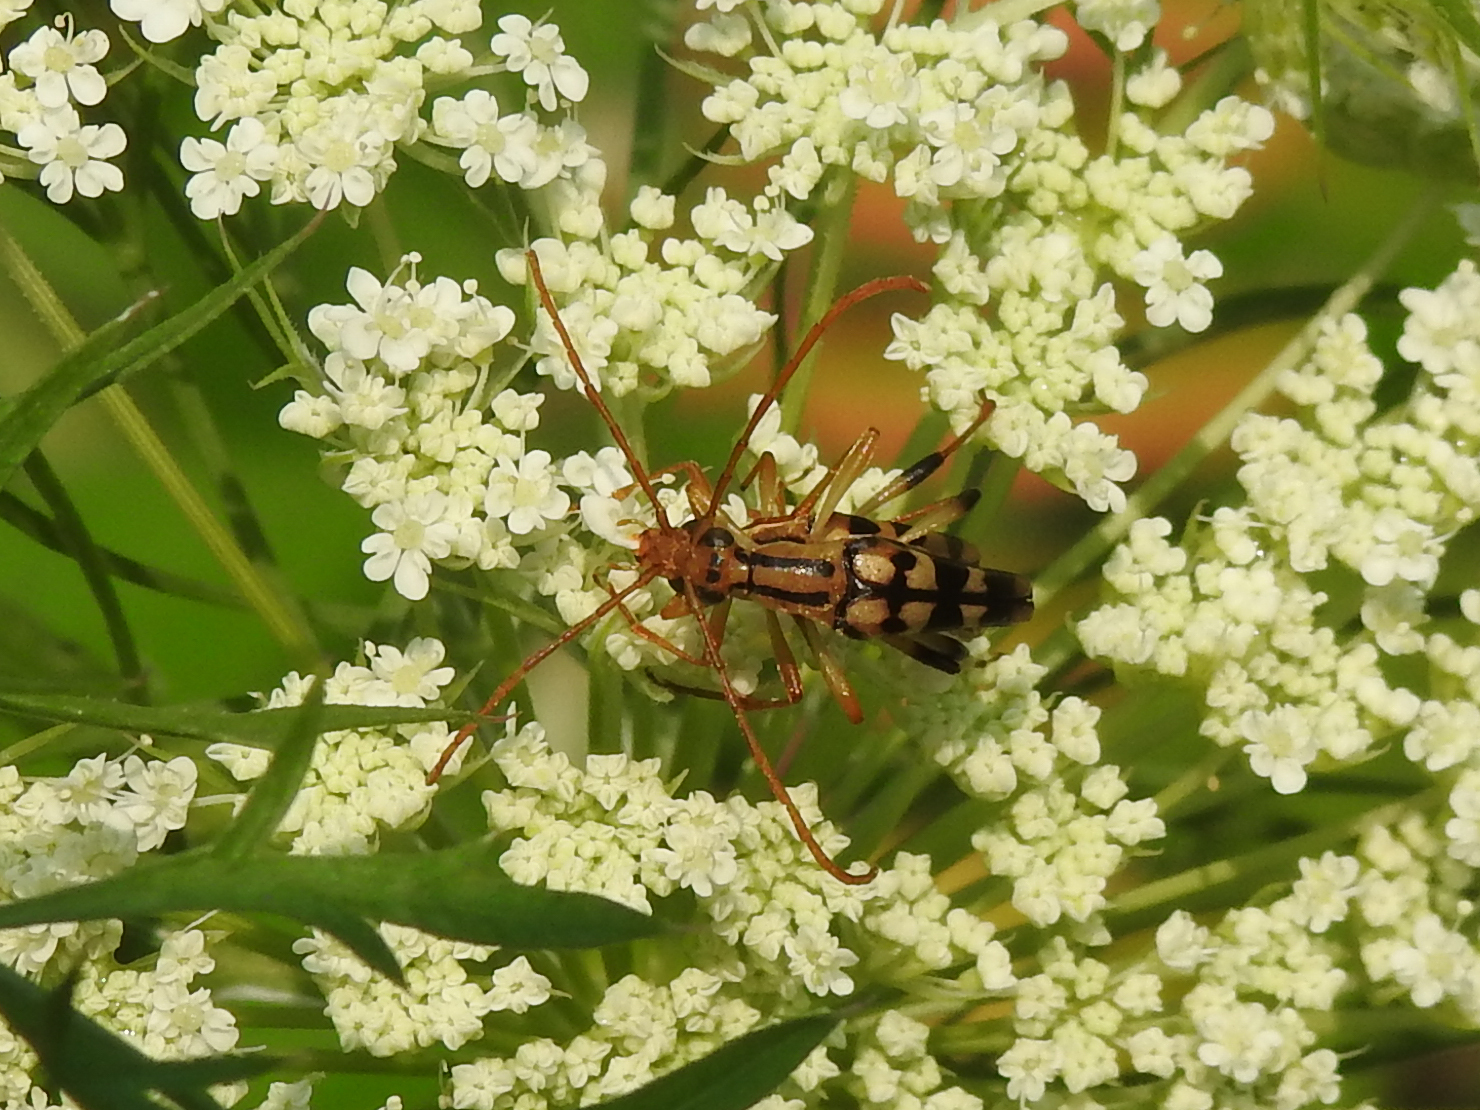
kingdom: Animalia
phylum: Arthropoda
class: Insecta
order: Coleoptera
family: Cerambycidae
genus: Strangalia
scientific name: Strangalia luteicornis
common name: Yellow-horned flower longhorn beetle
